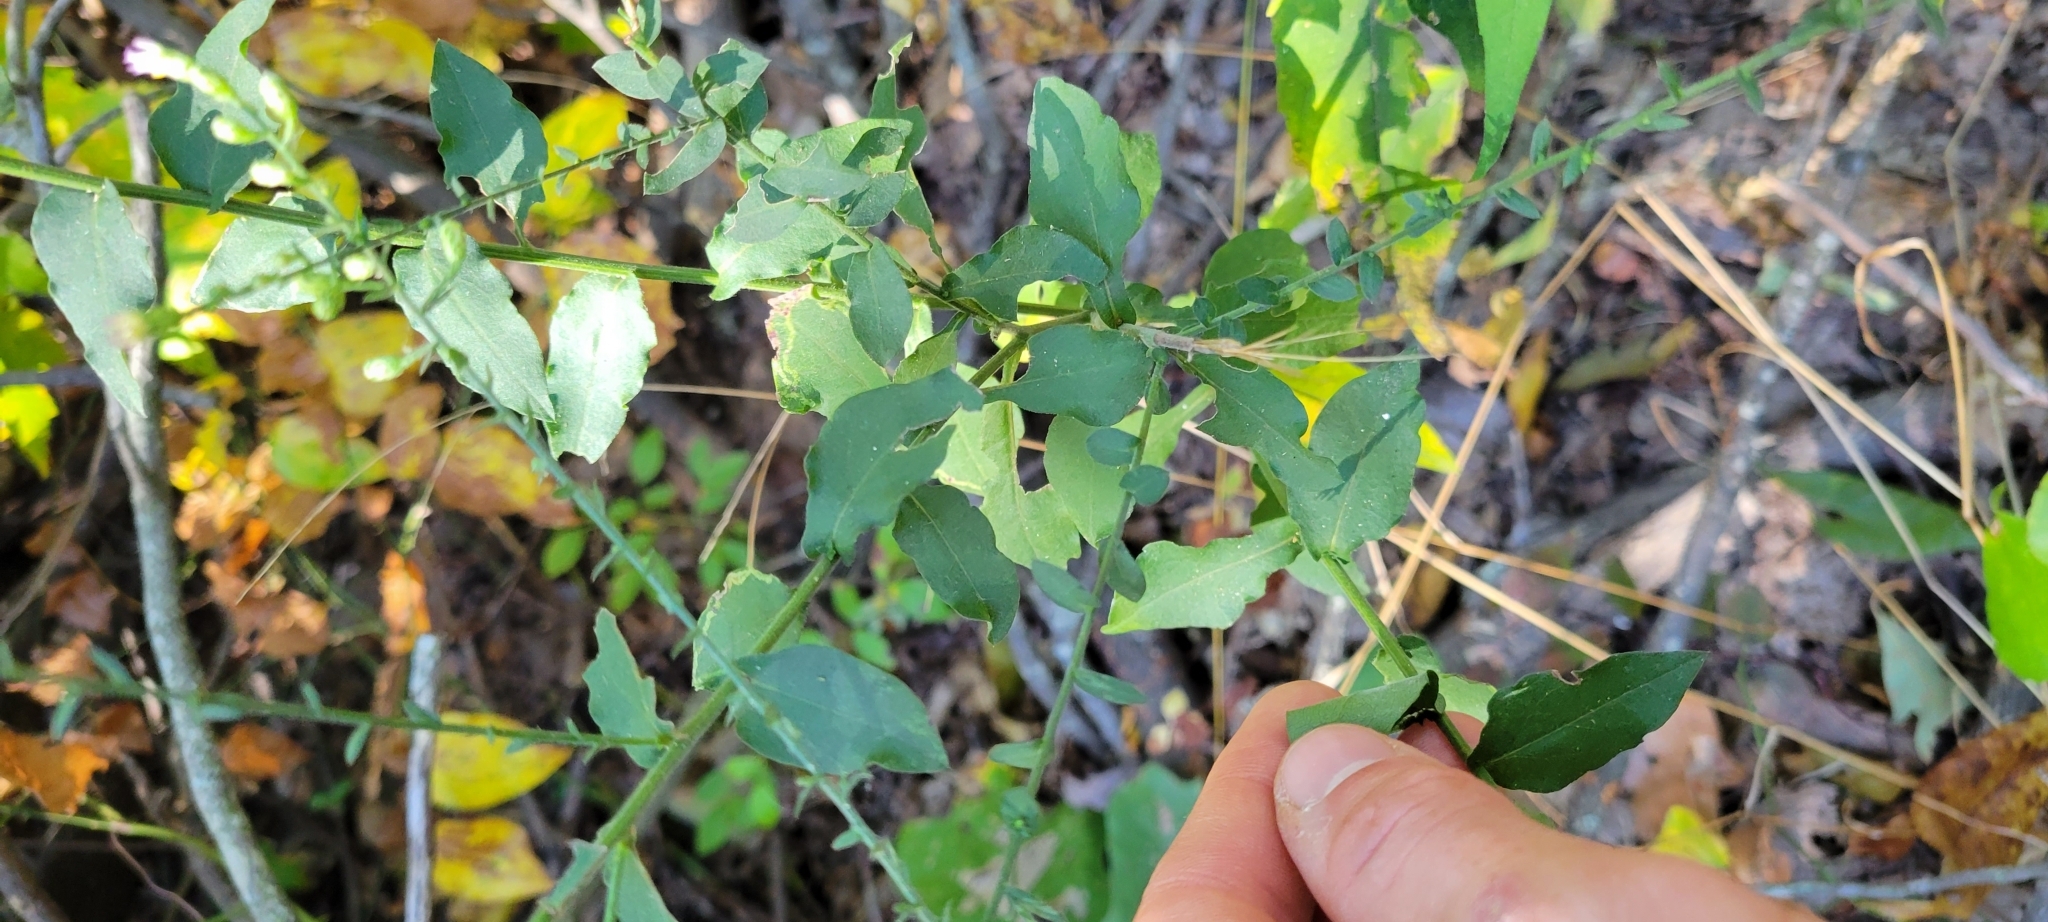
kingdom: Plantae
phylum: Tracheophyta
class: Magnoliopsida
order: Asterales
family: Asteraceae
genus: Symphyotrichum
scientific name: Symphyotrichum undulatum
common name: Clasping heart-leaf aster
